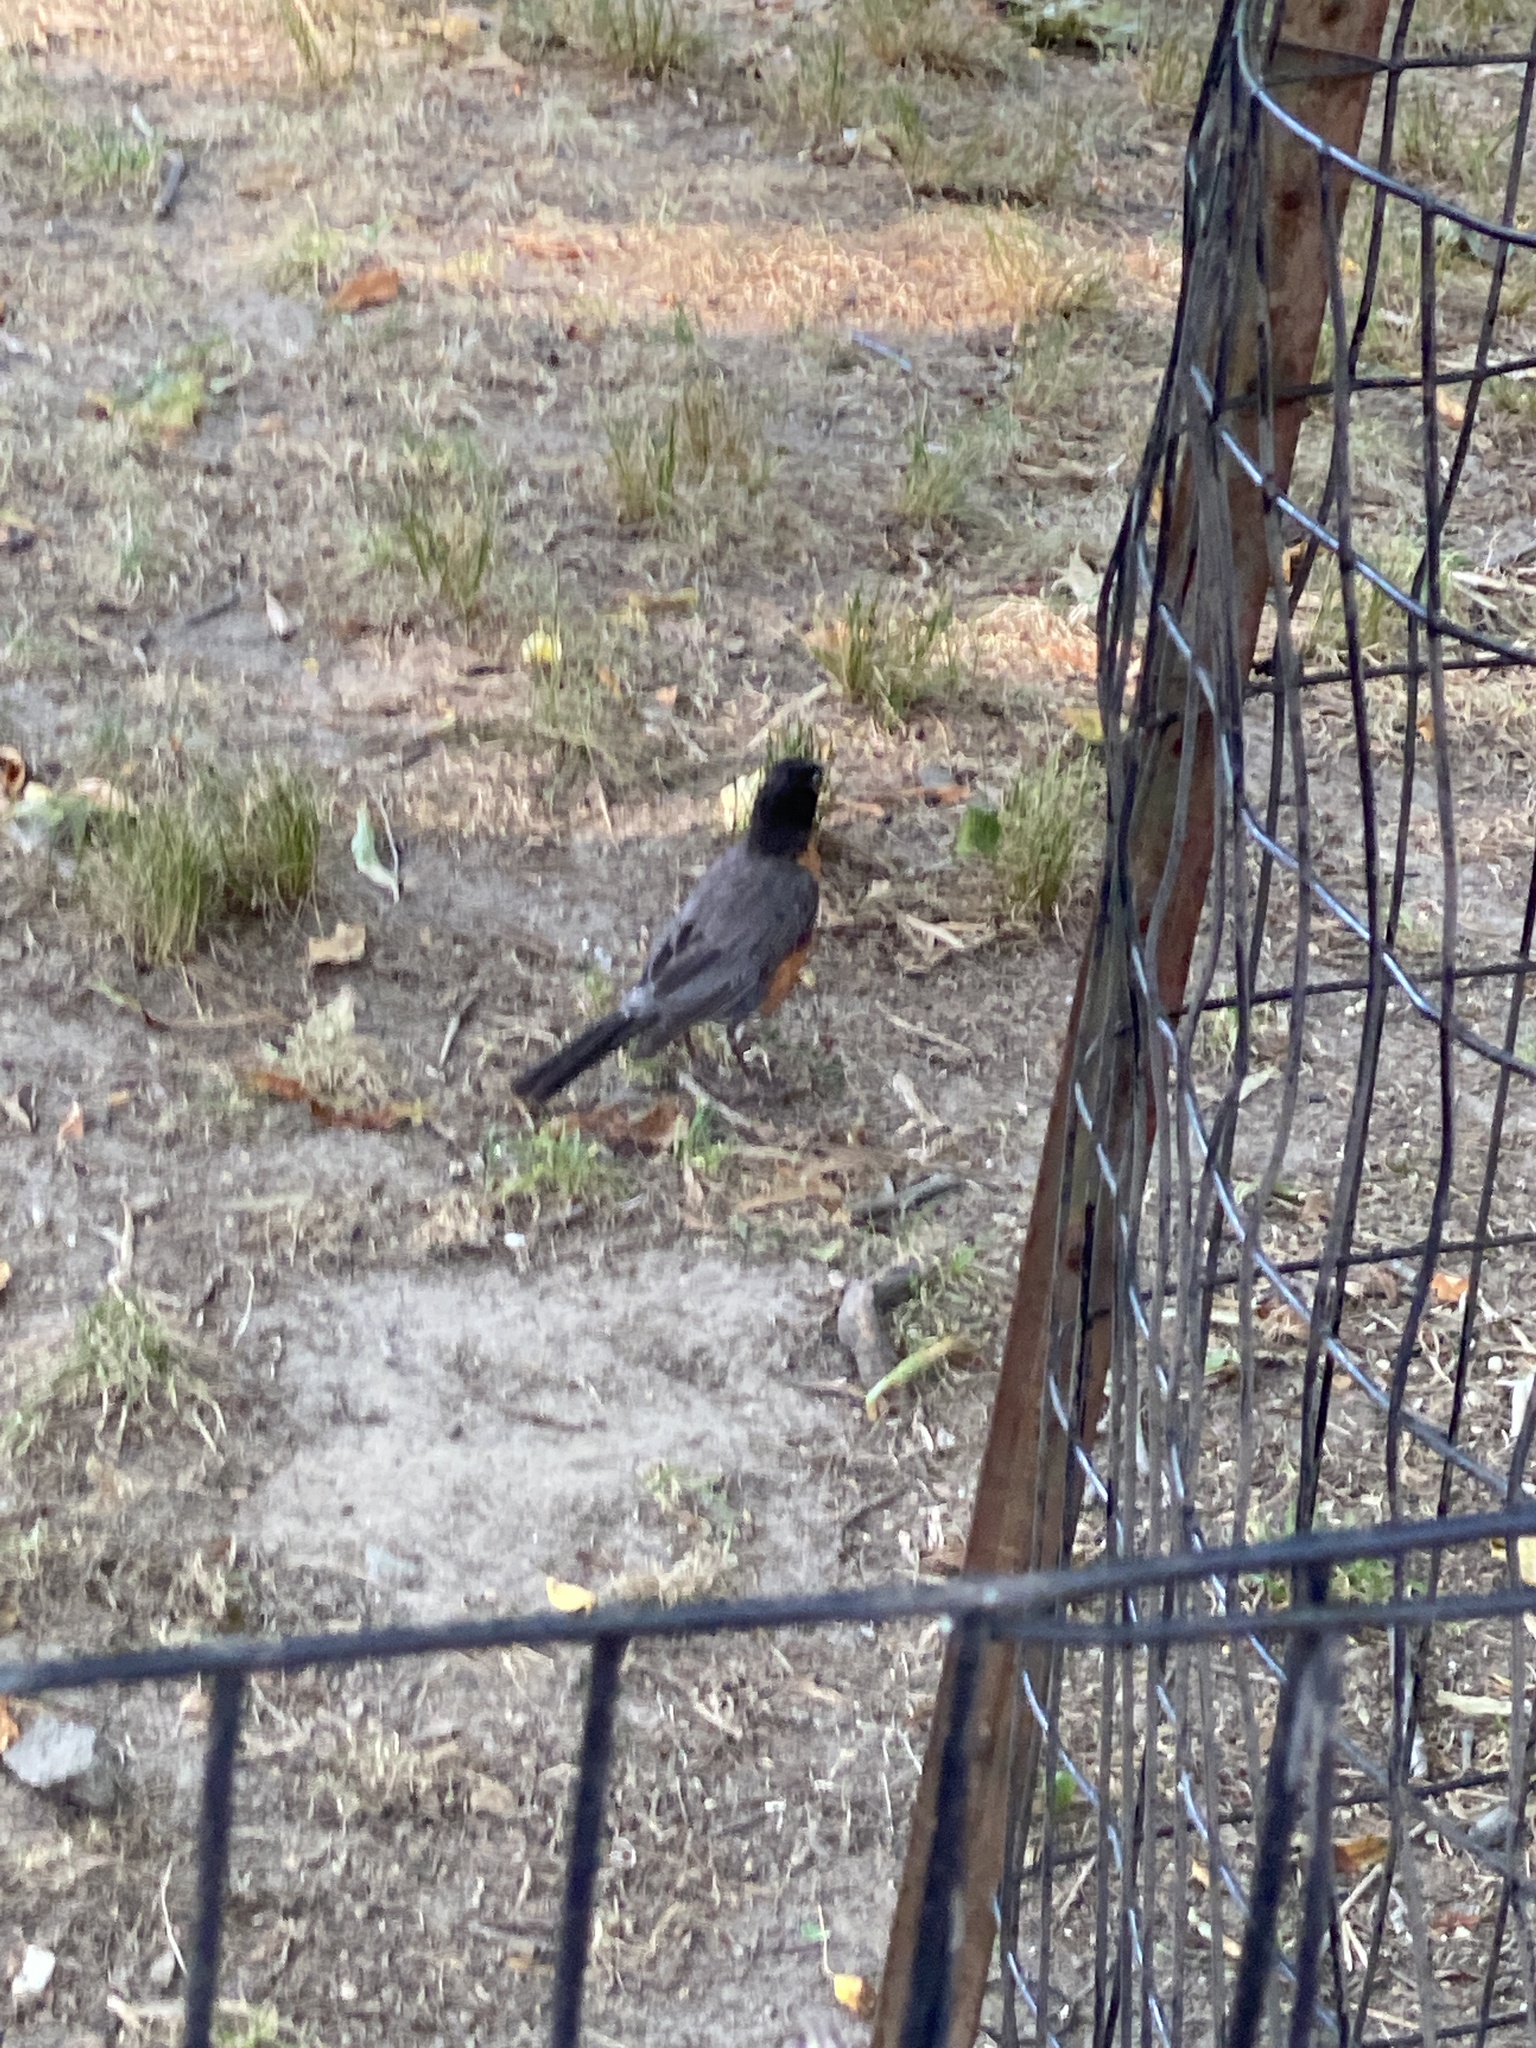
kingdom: Animalia
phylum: Chordata
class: Aves
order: Passeriformes
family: Turdidae
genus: Turdus
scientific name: Turdus migratorius
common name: American robin
